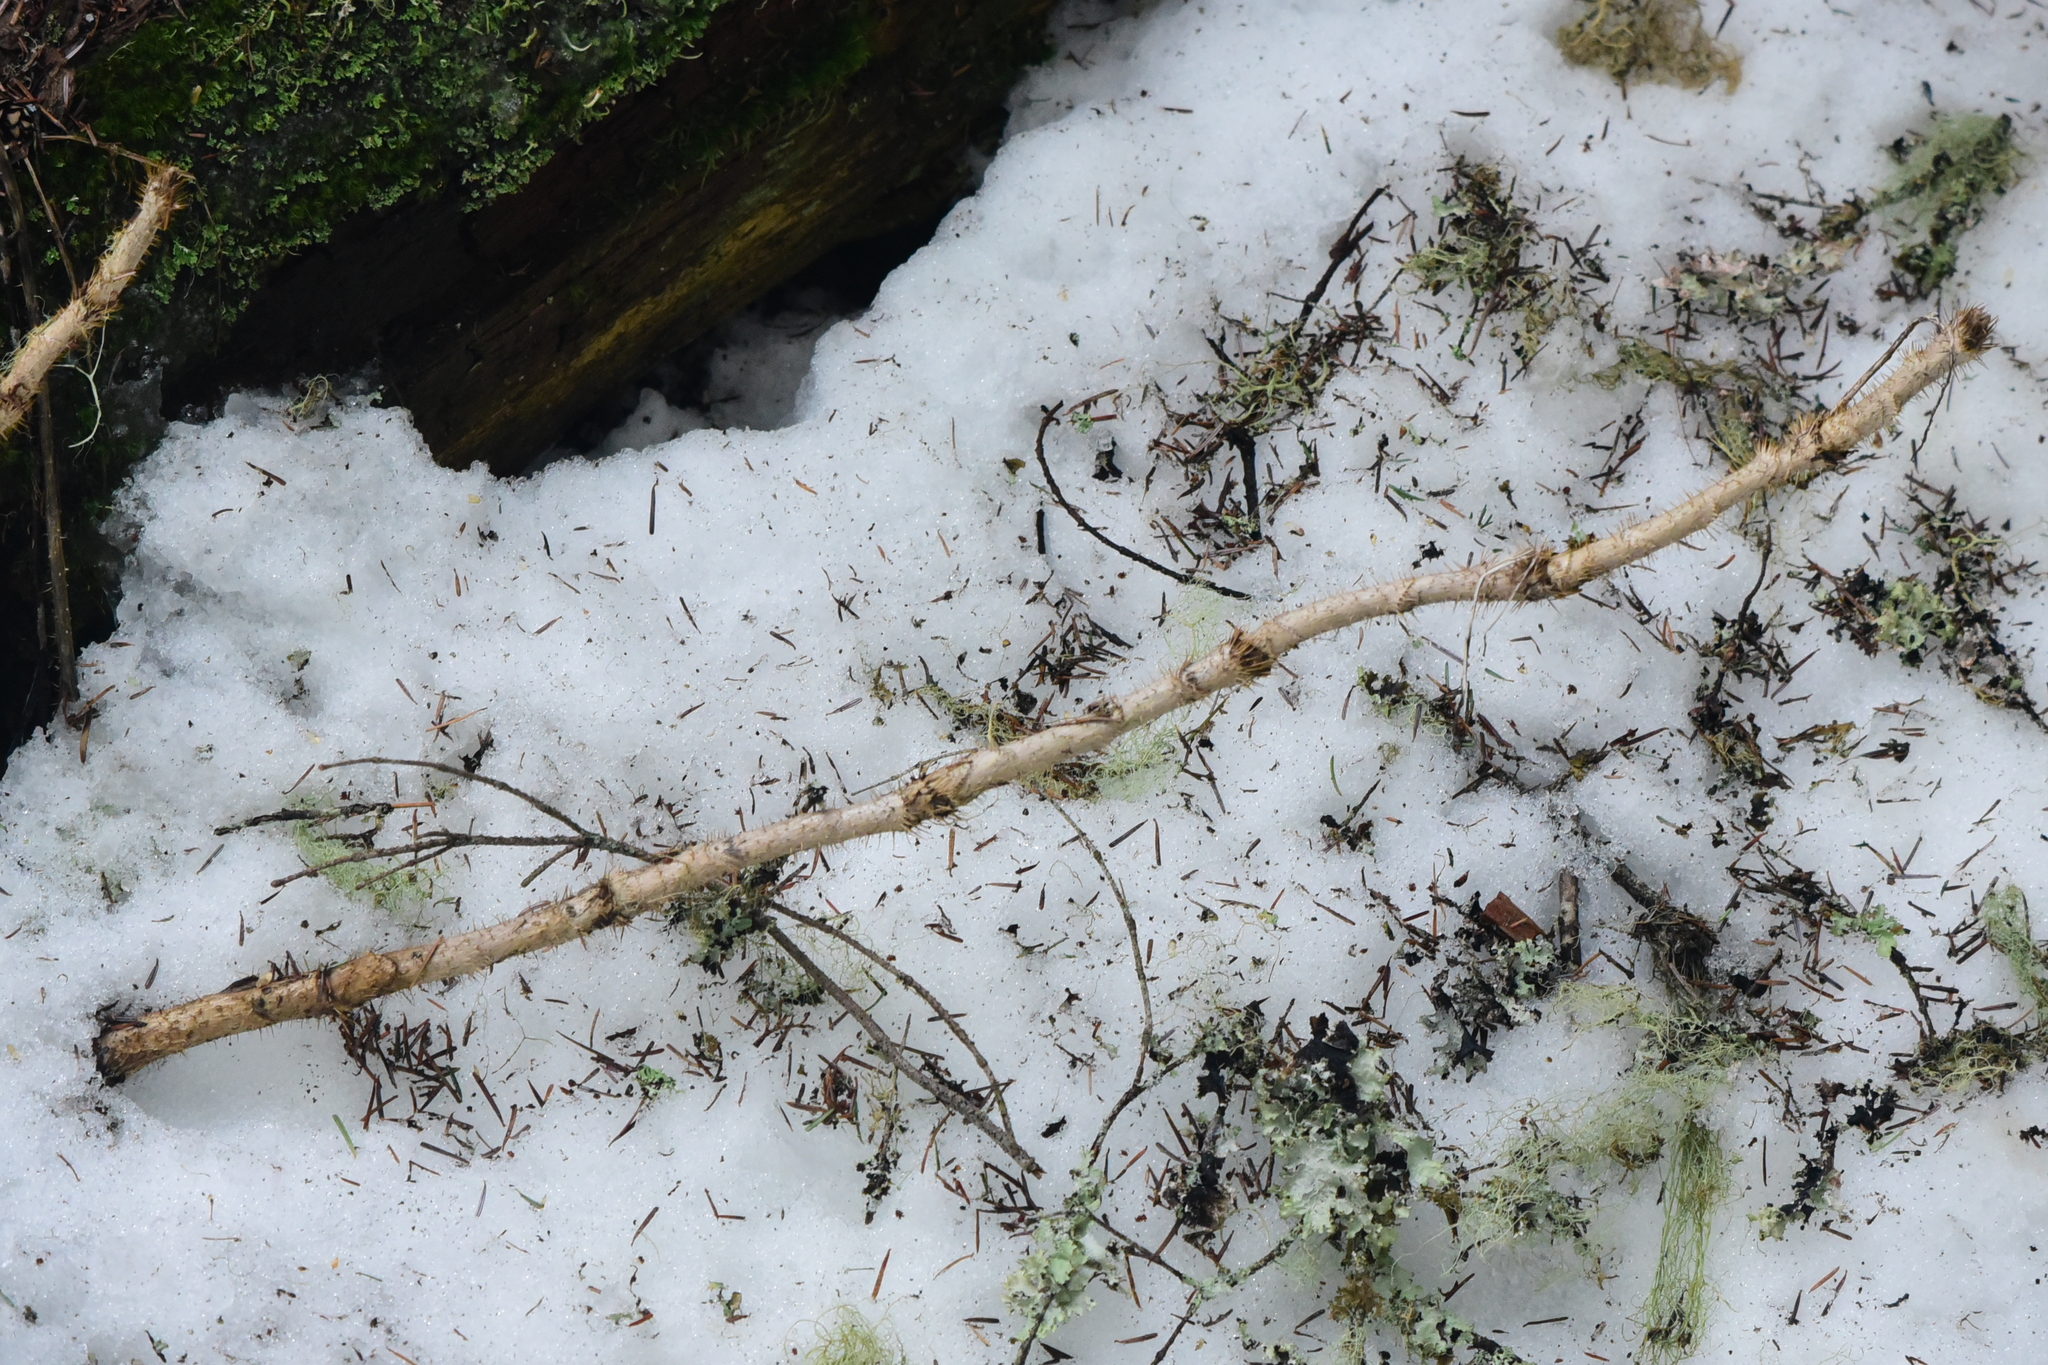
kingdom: Plantae
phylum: Tracheophyta
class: Magnoliopsida
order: Apiales
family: Araliaceae
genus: Oplopanax
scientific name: Oplopanax horridus
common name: Devil's walking-stick
